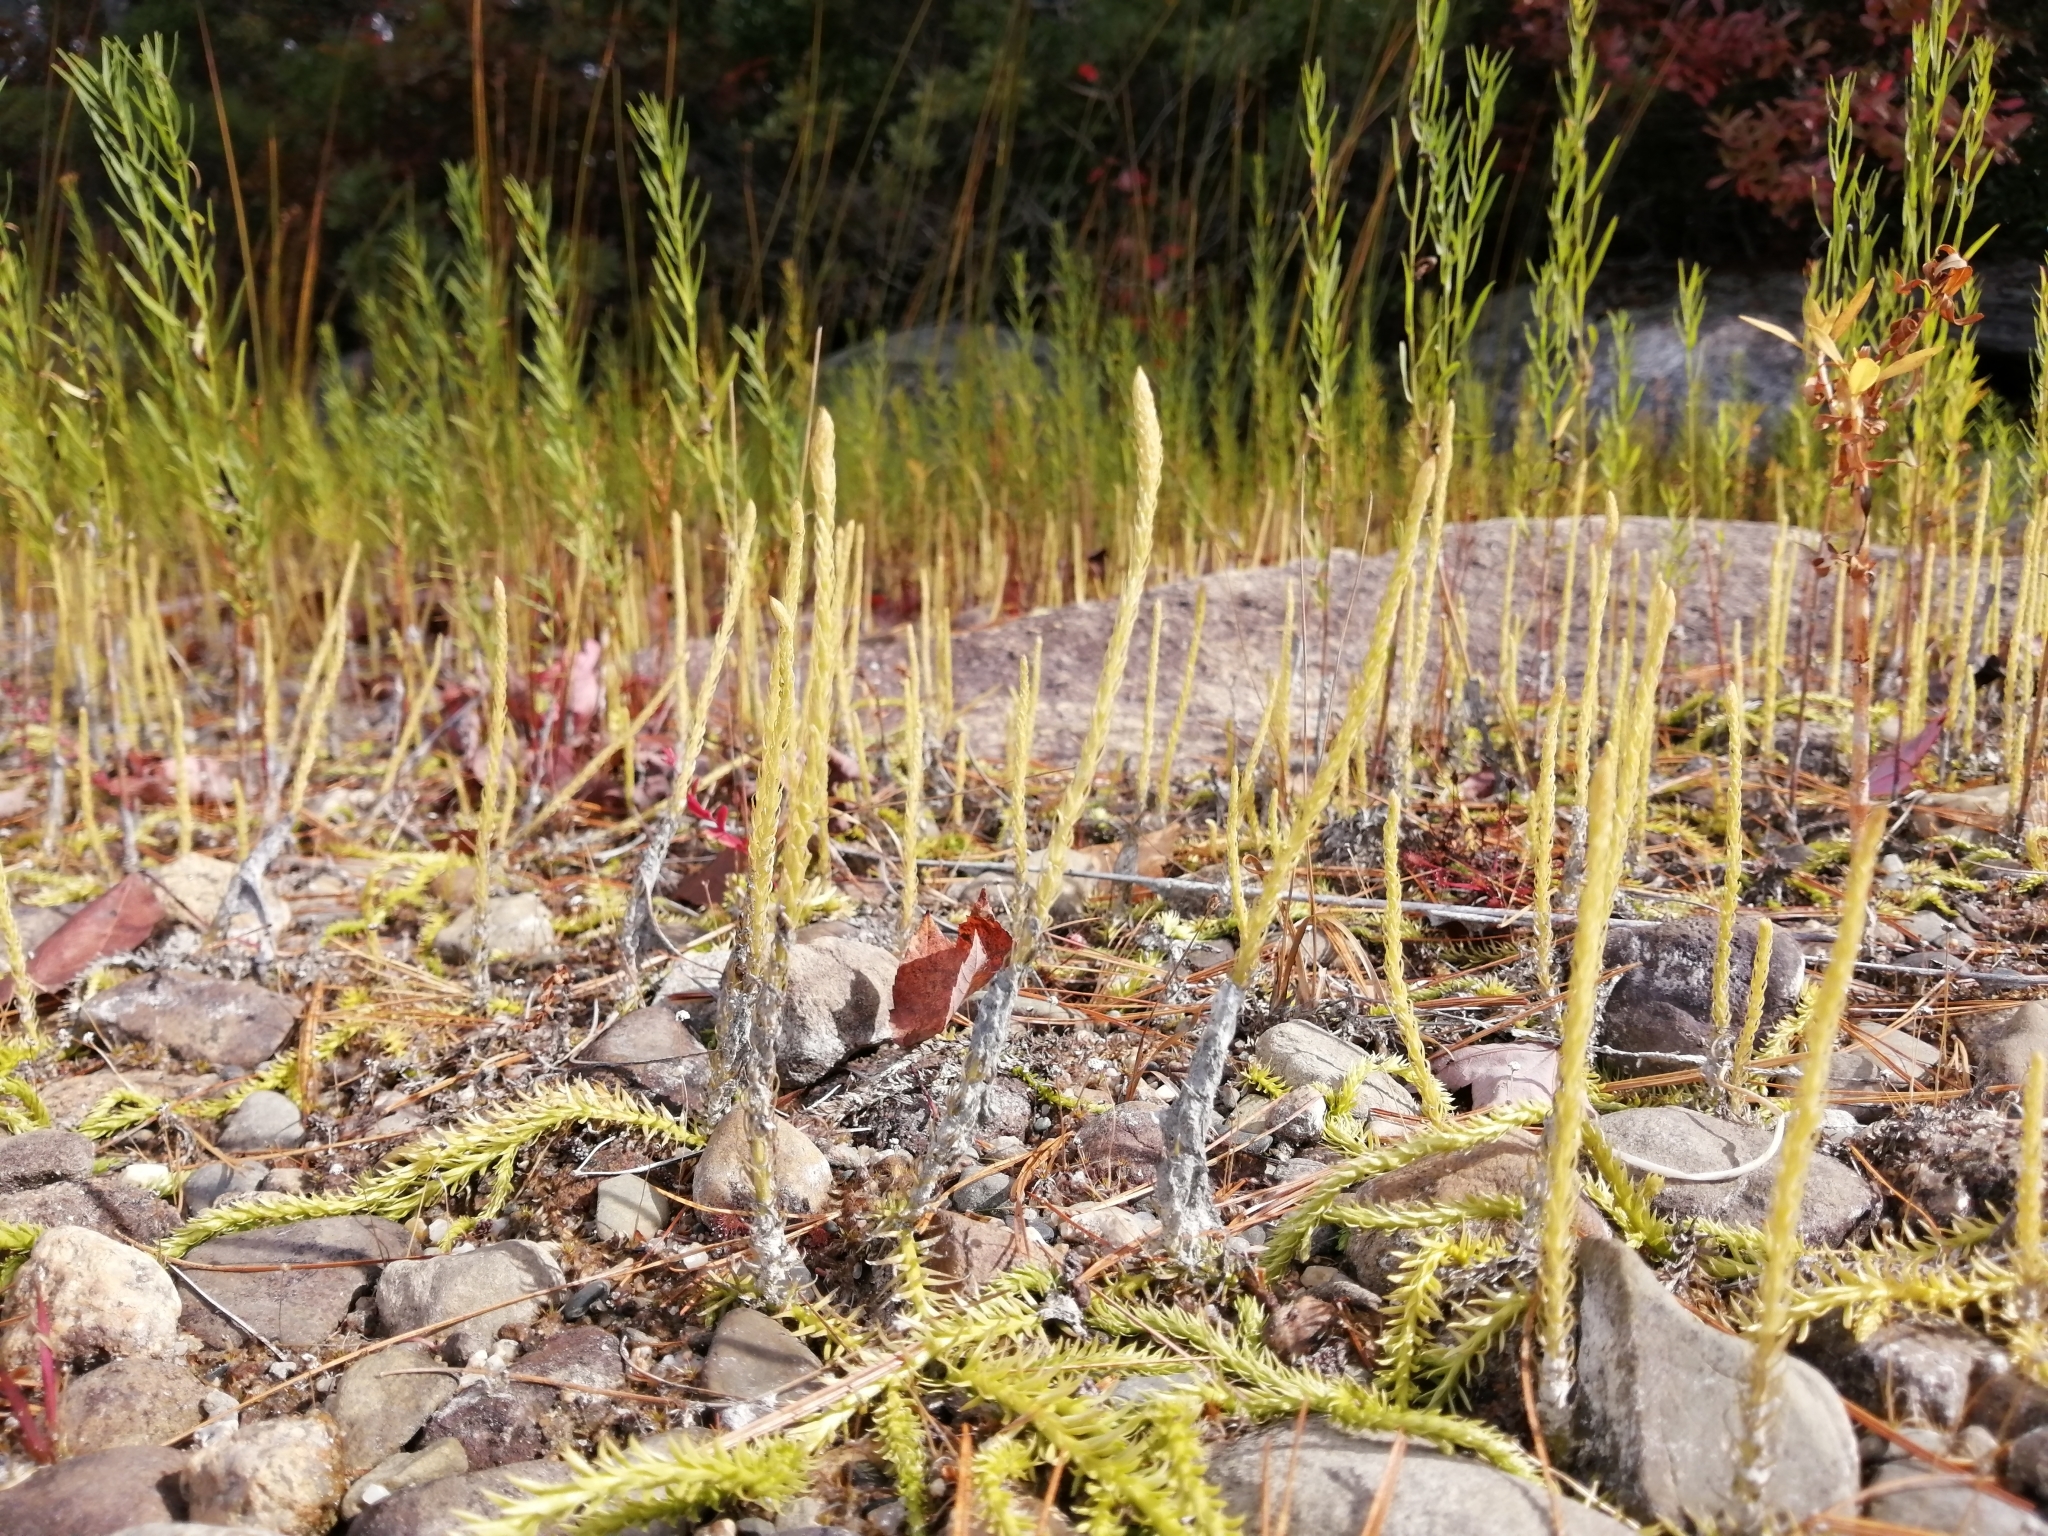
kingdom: Plantae
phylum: Tracheophyta
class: Lycopodiopsida
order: Lycopodiales
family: Lycopodiaceae
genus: Lycopodiella
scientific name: Lycopodiella appressa
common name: Appressed bog clubmoss
